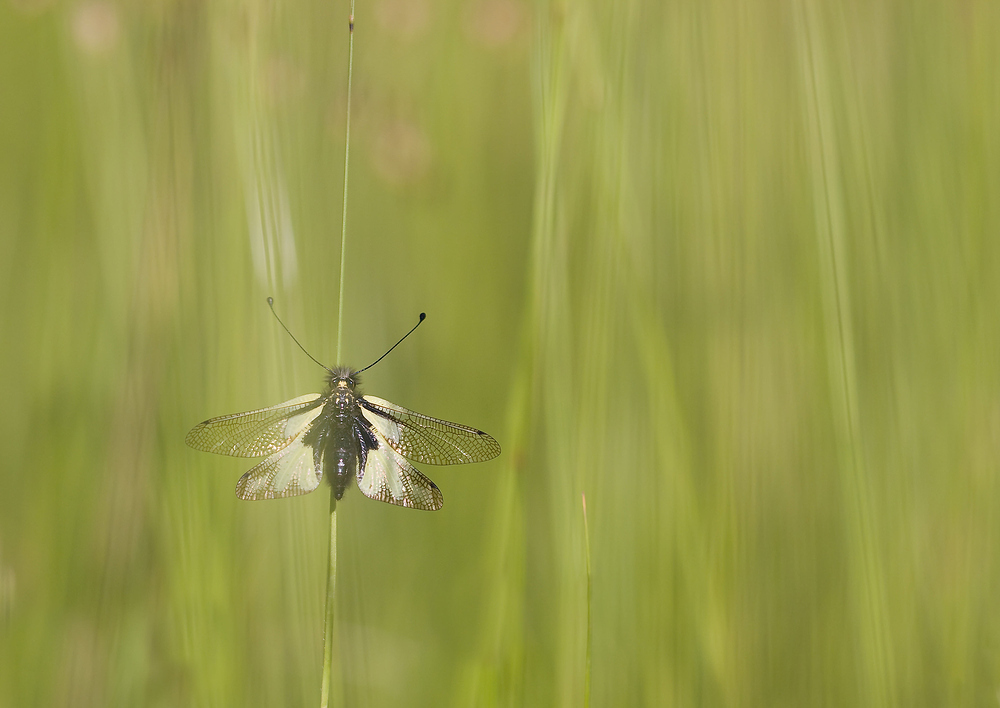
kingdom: Animalia
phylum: Arthropoda
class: Insecta
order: Neuroptera
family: Ascalaphidae
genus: Libelloides
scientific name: Libelloides coccajus
